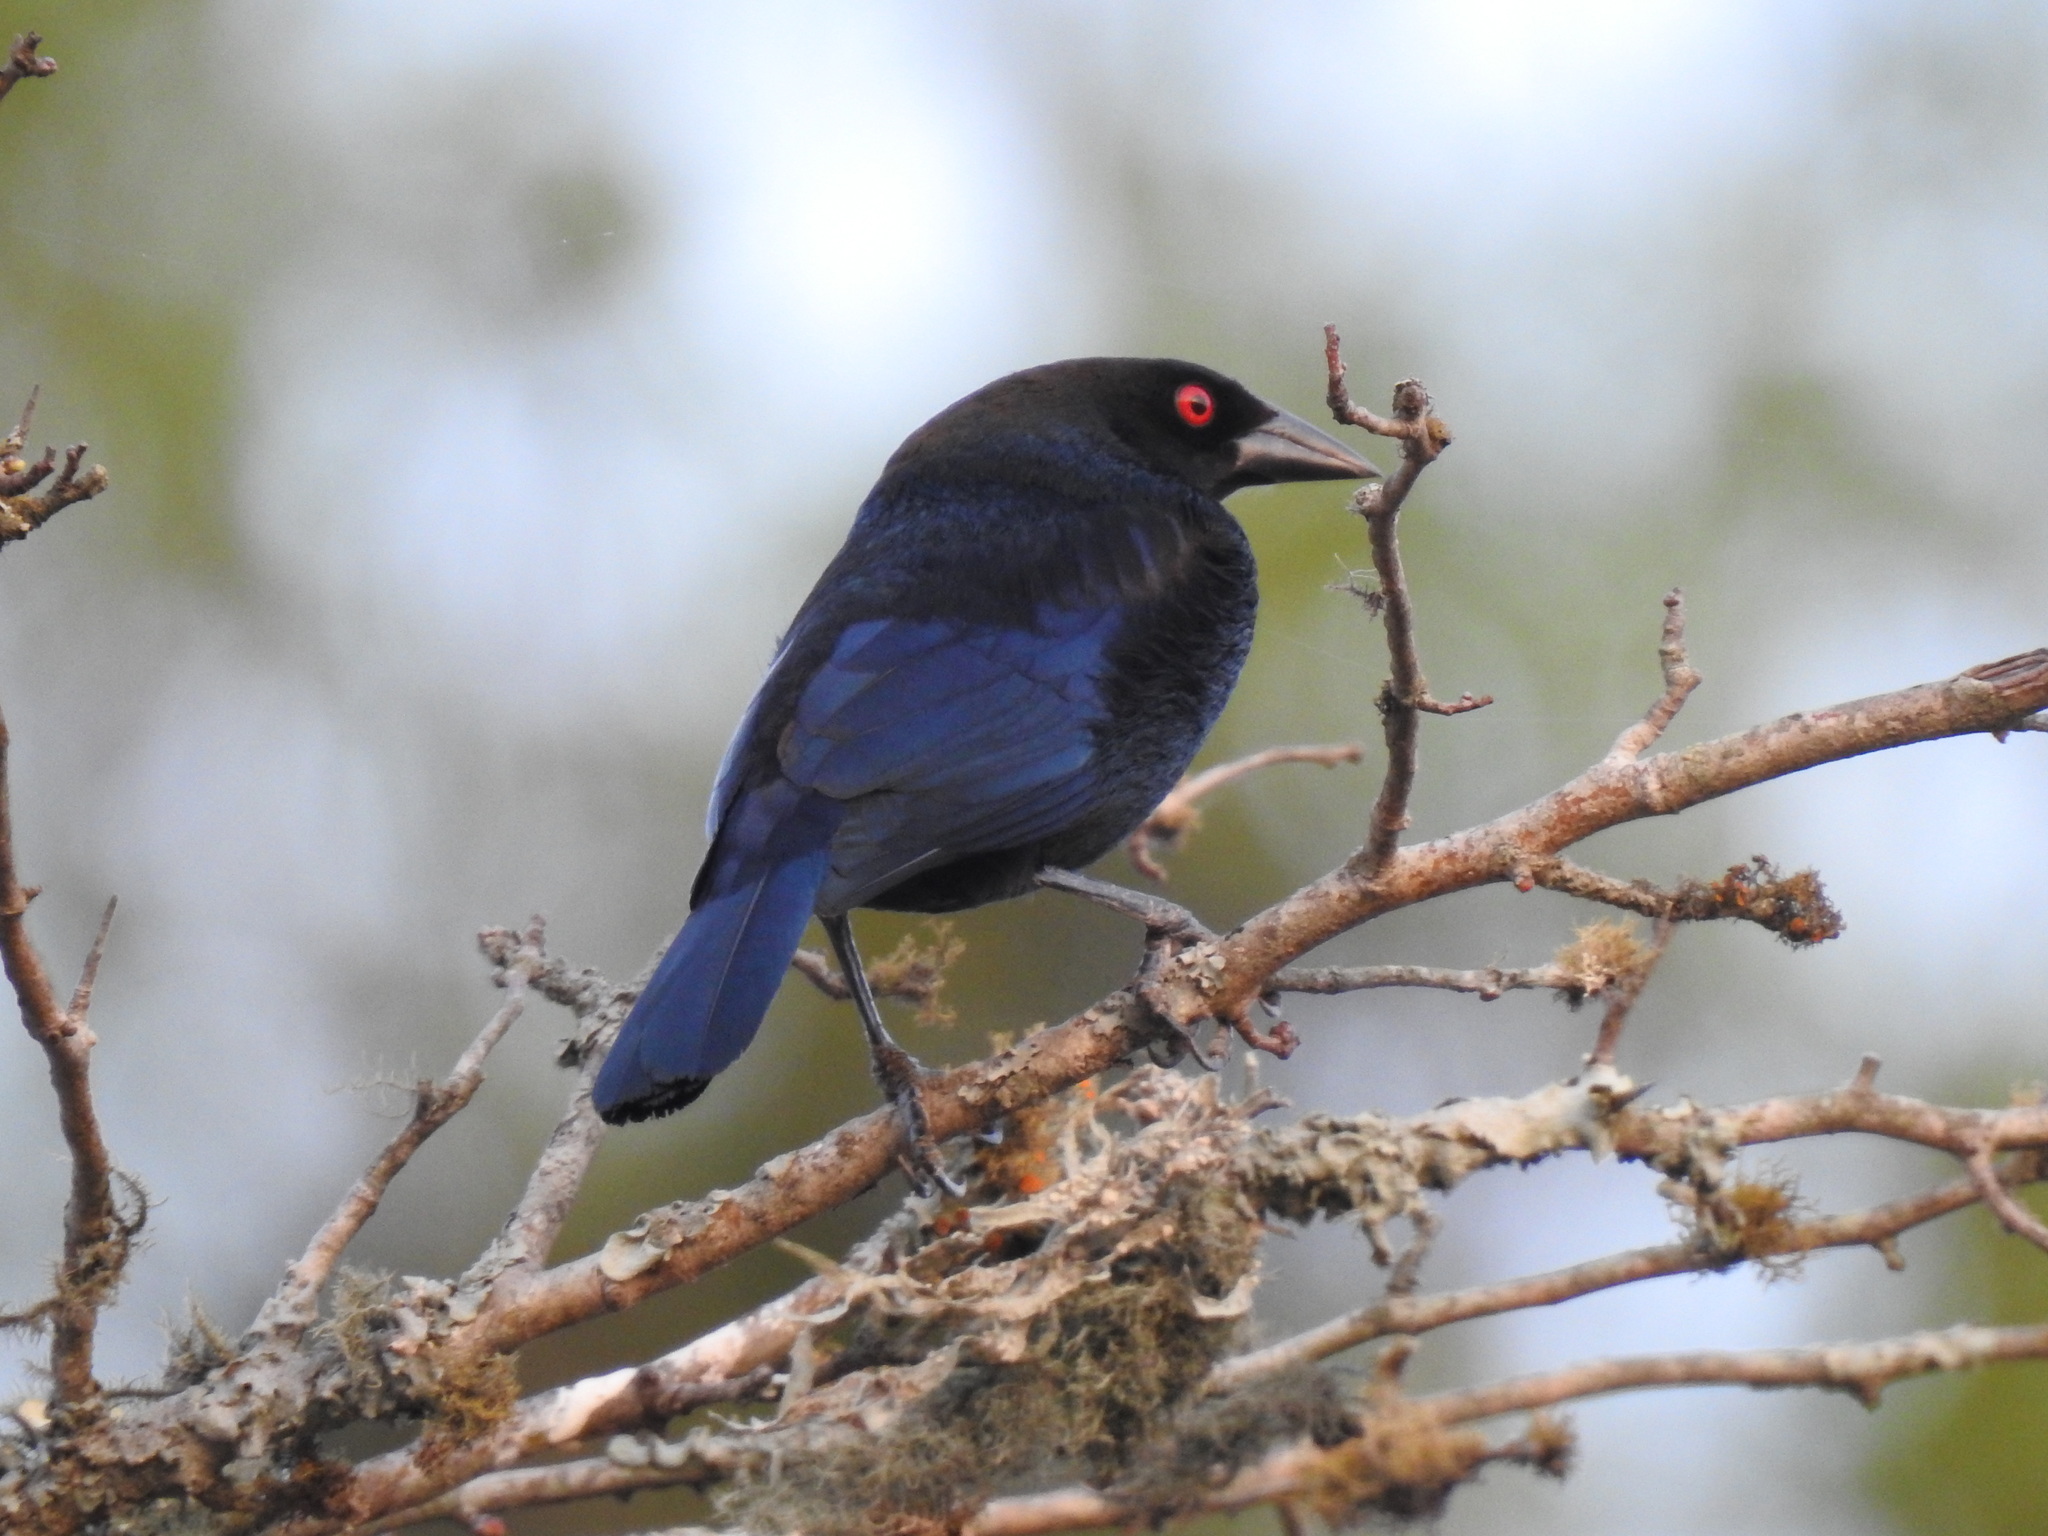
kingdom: Animalia
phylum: Chordata
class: Aves
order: Passeriformes
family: Icteridae
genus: Molothrus
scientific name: Molothrus aeneus
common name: Bronzed cowbird
